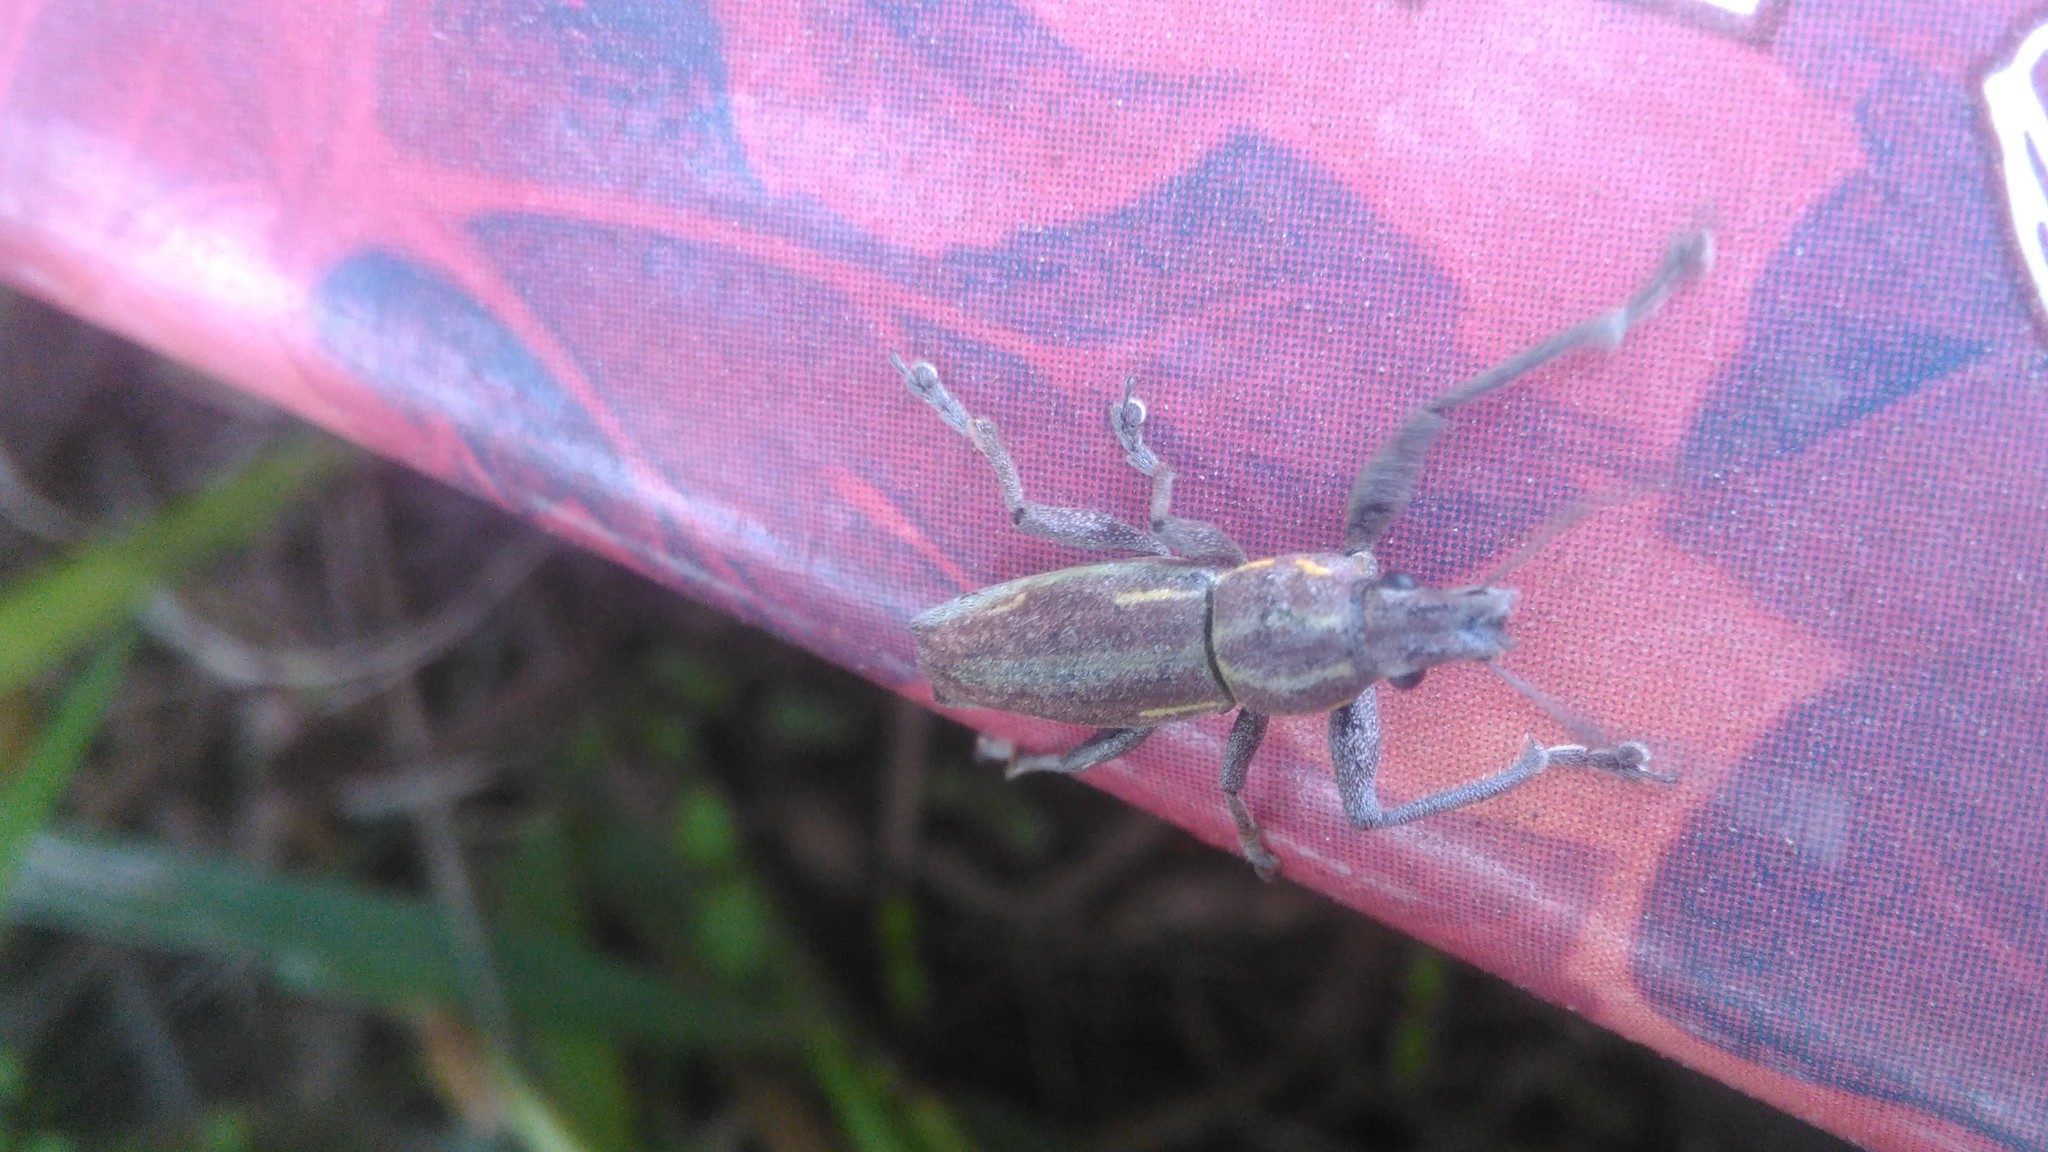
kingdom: Animalia
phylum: Arthropoda
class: Insecta
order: Coleoptera
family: Curculionidae
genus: Naupactus
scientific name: Naupactus xanthographus
